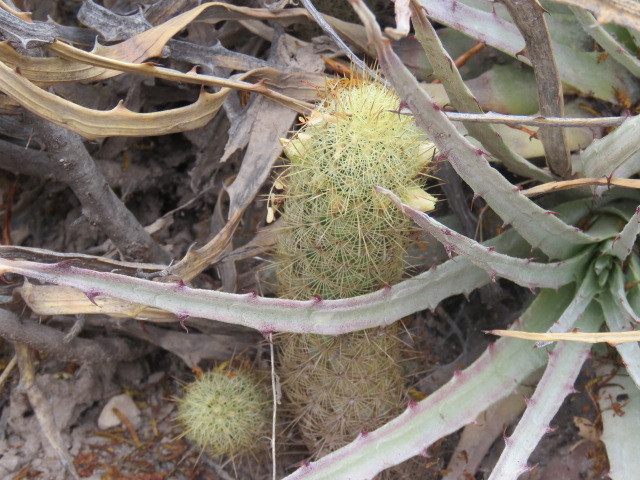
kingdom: Plantae
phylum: Tracheophyta
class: Magnoliopsida
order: Caryophyllales
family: Cactaceae
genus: Mammillaria
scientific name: Mammillaria elongata
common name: Golden star cactus
